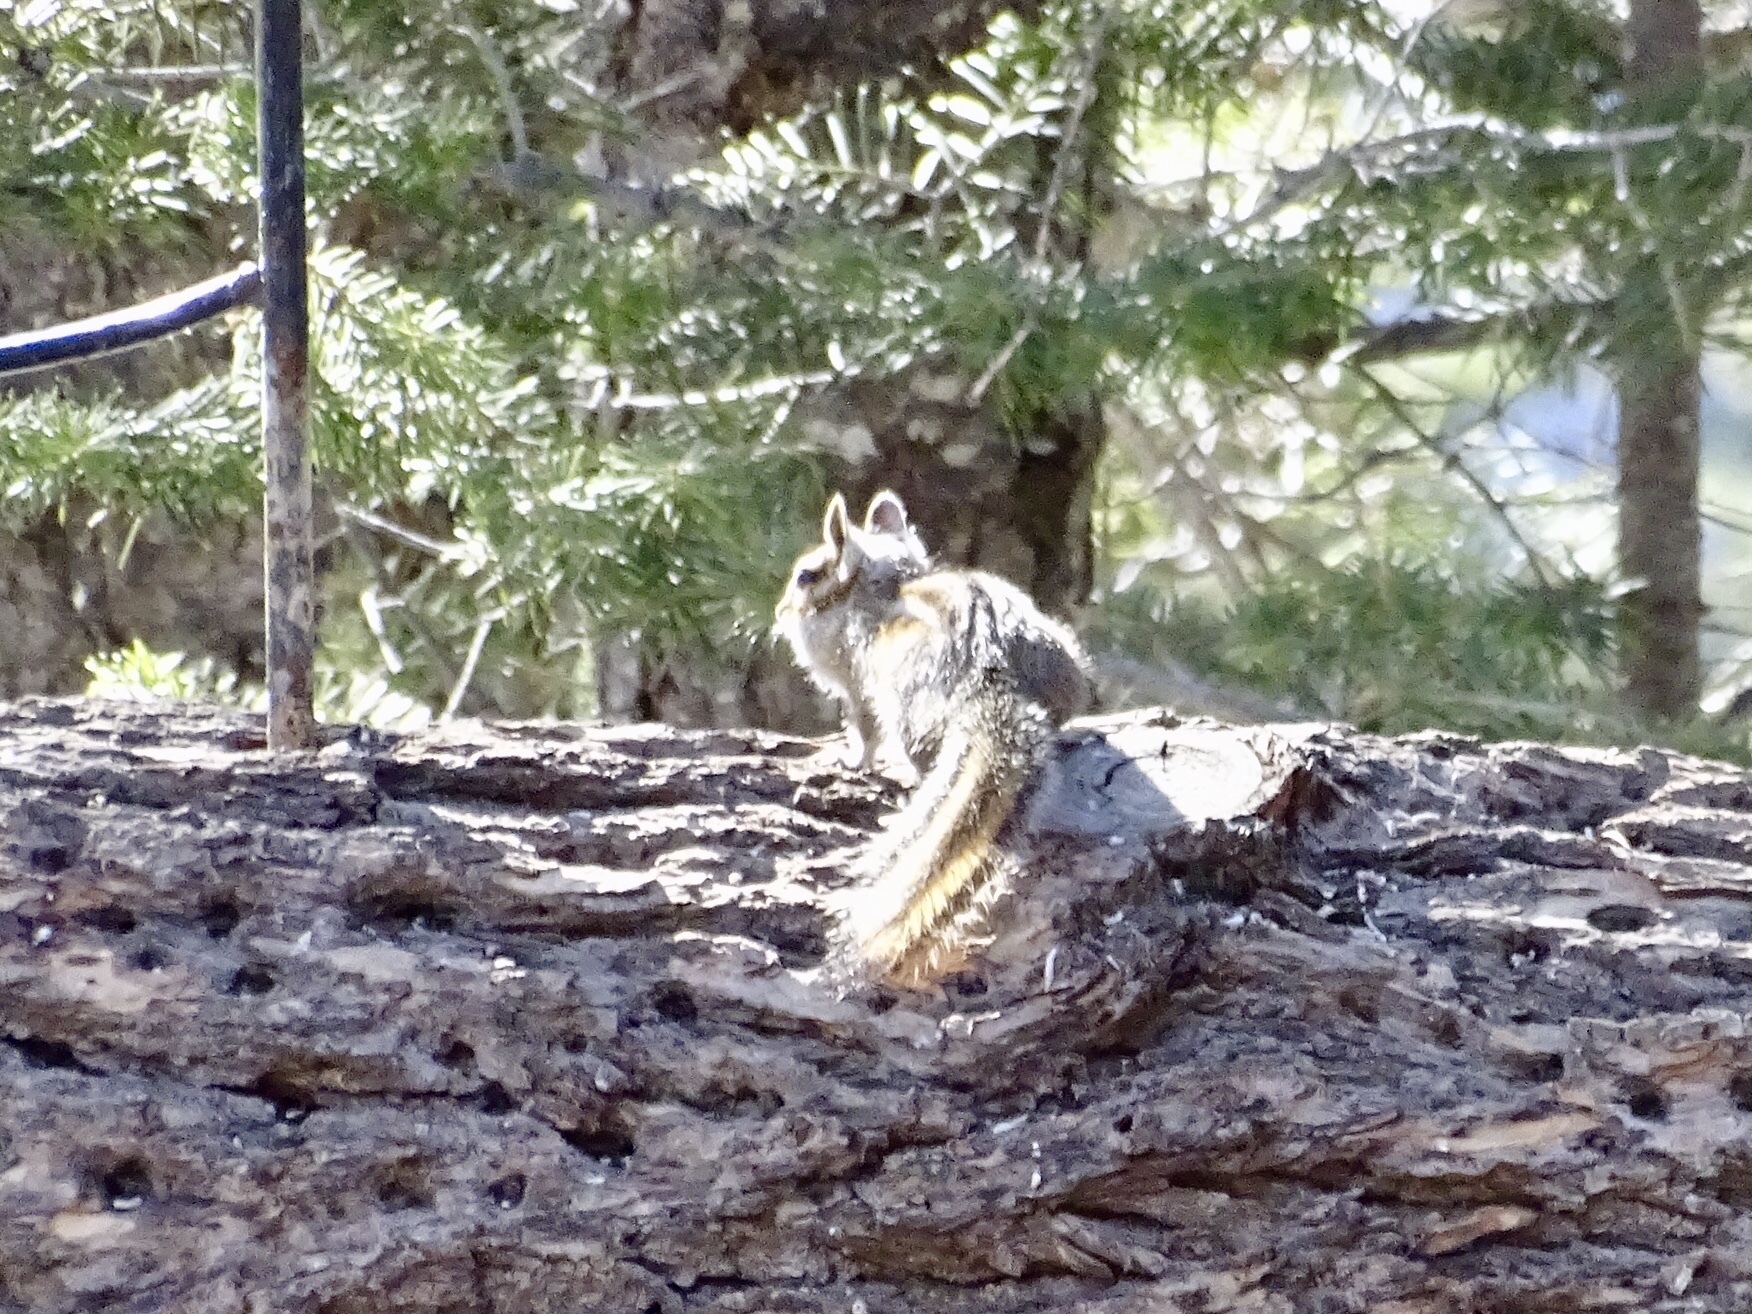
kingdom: Animalia
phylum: Chordata
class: Mammalia
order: Rodentia
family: Sciuridae
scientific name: Sciuridae
